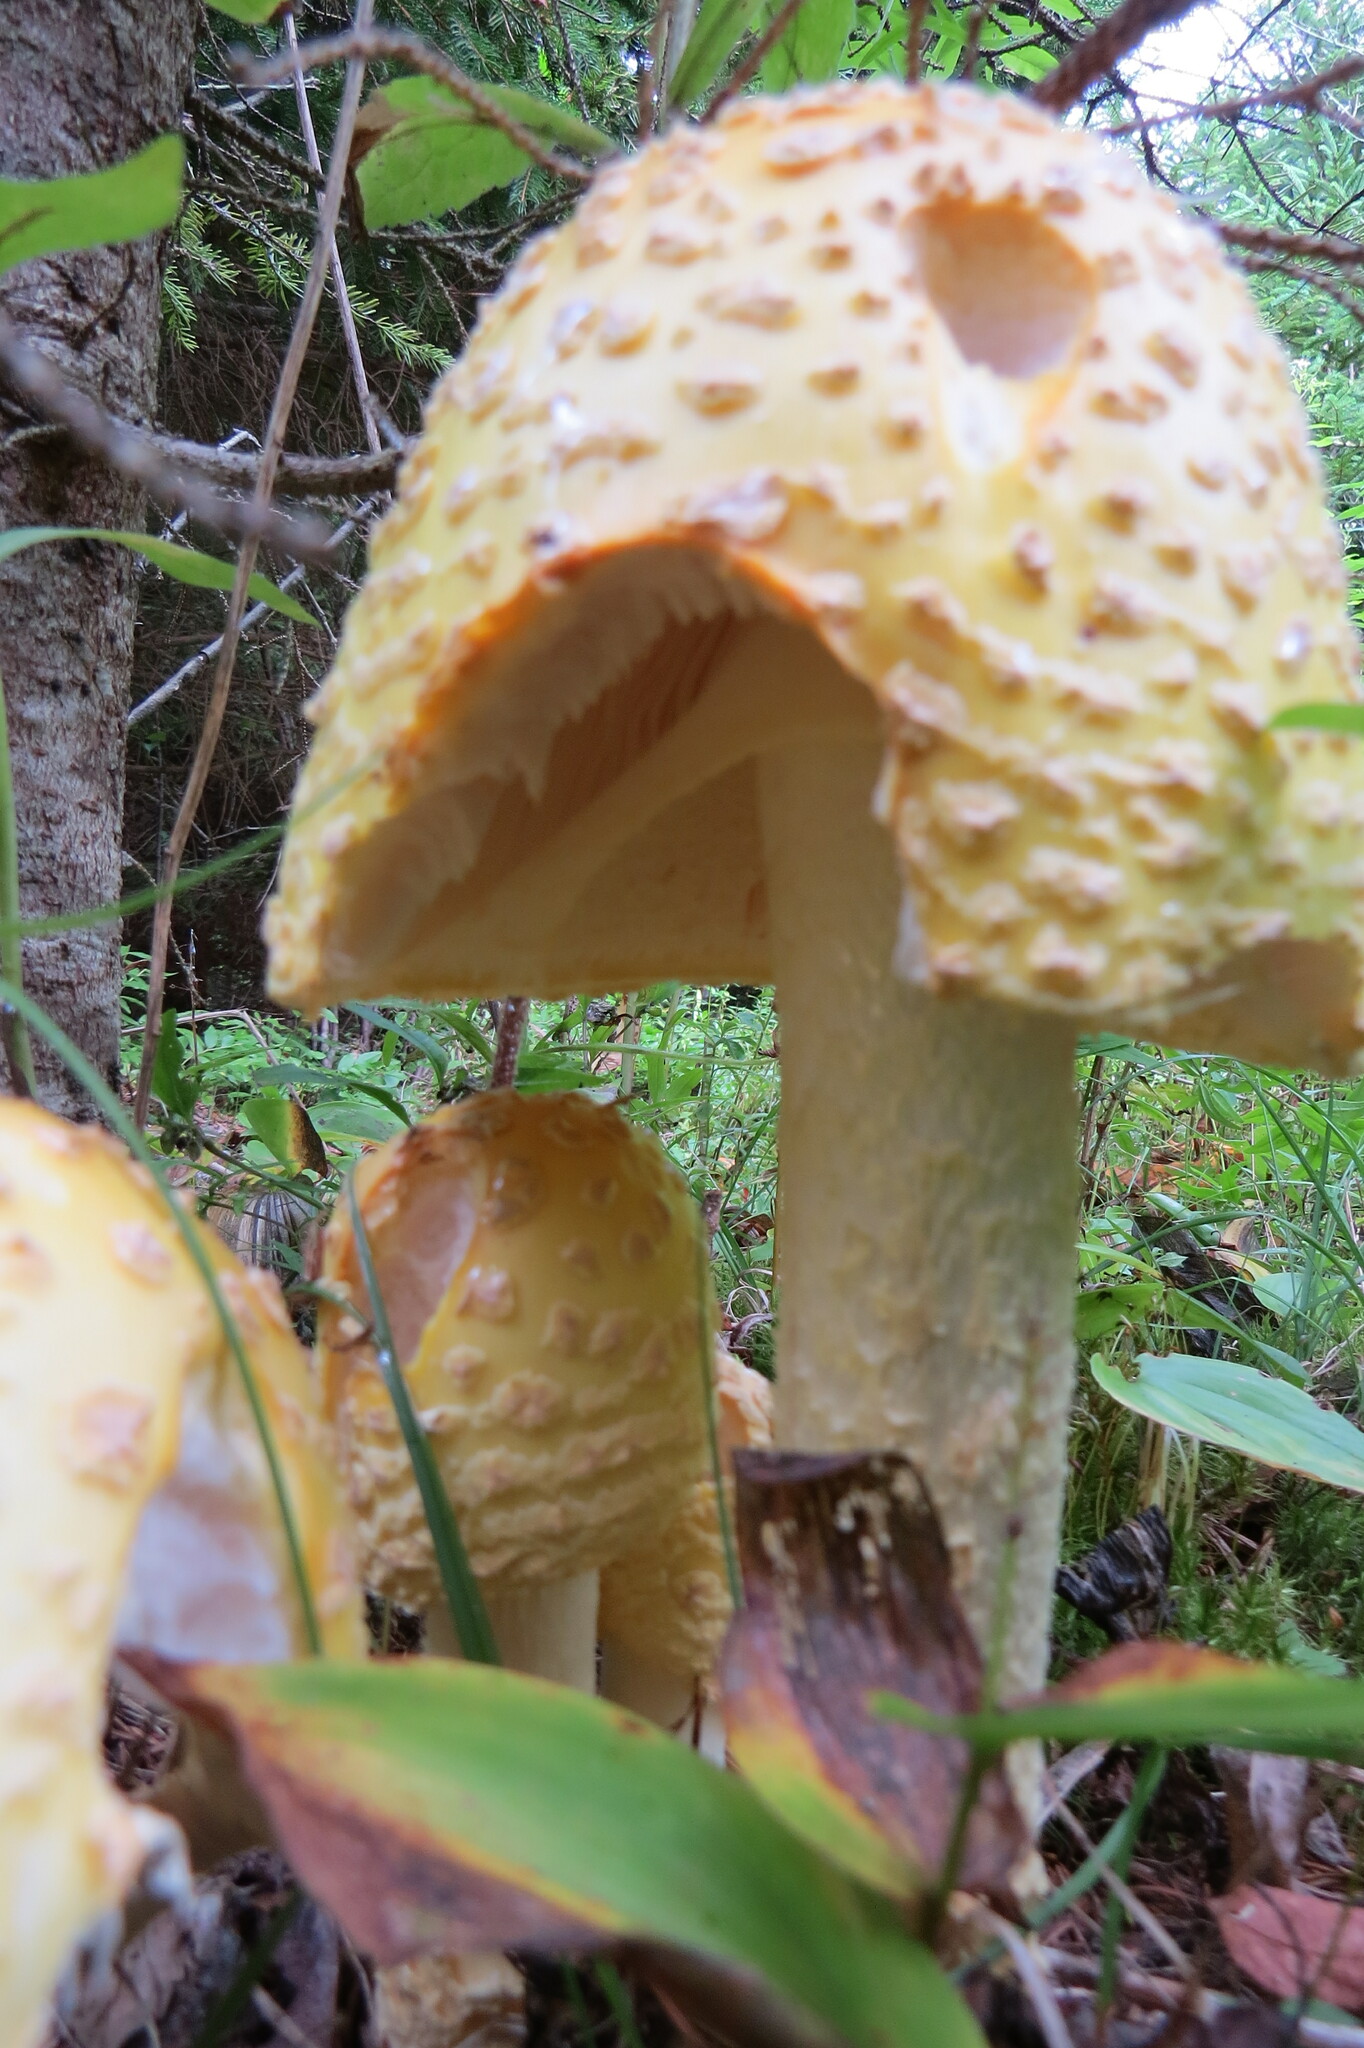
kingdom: Fungi
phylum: Basidiomycota
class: Agaricomycetes
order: Agaricales
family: Amanitaceae
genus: Amanita
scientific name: Amanita muscaria
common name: Fly agaric
